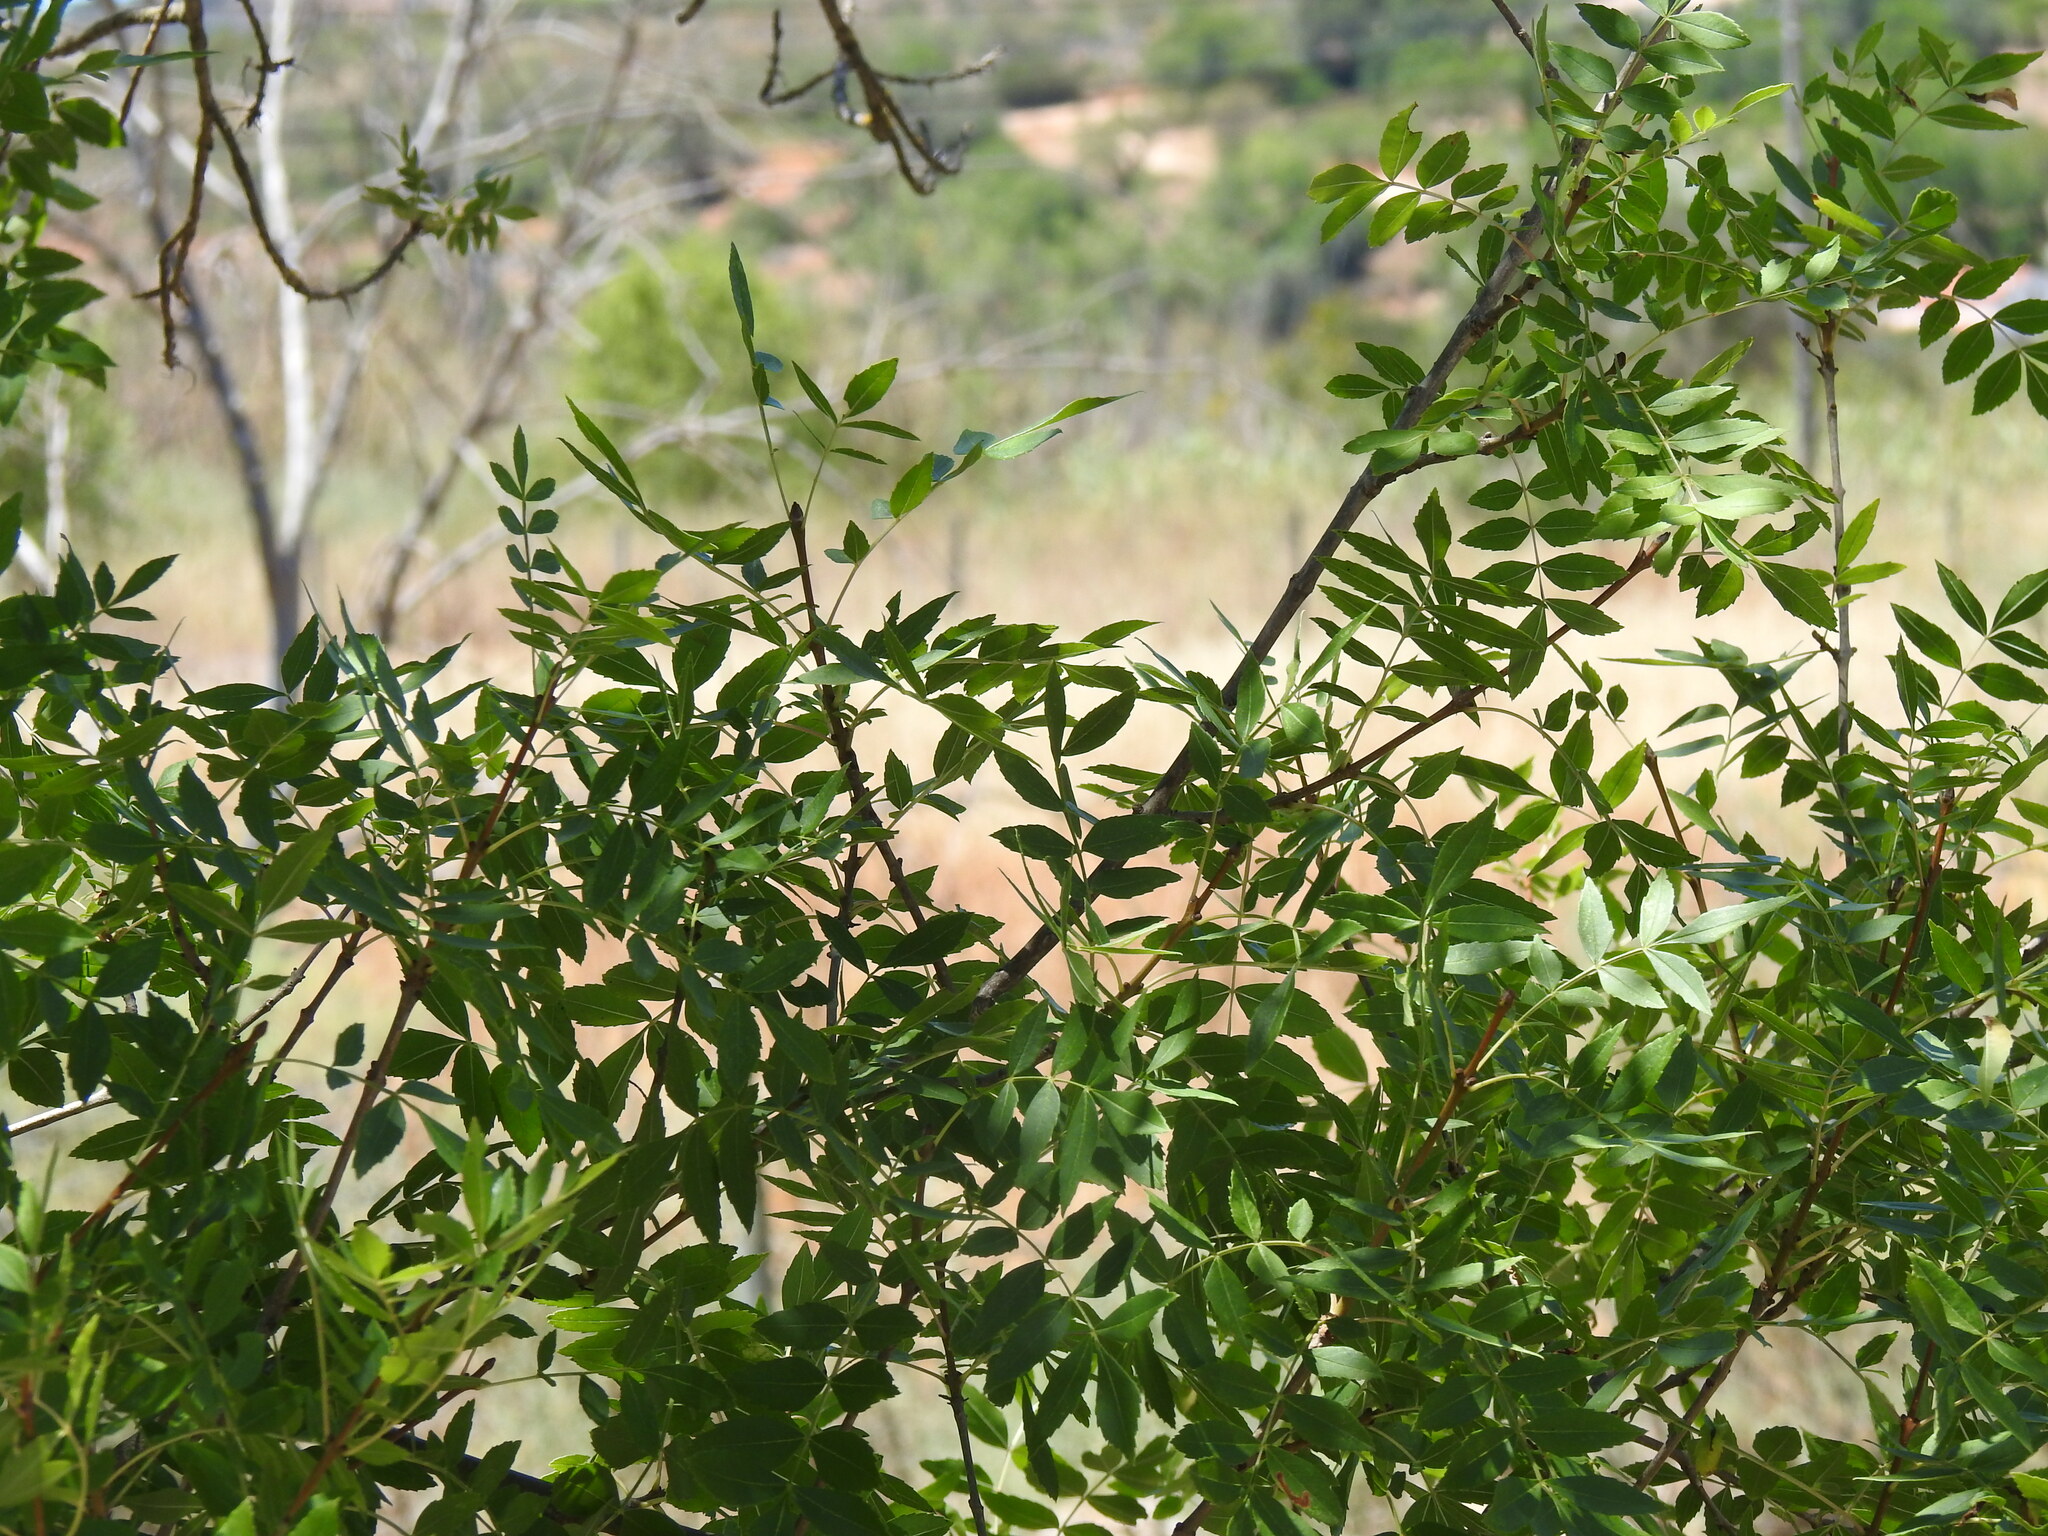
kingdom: Plantae
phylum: Tracheophyta
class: Magnoliopsida
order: Lamiales
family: Oleaceae
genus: Fraxinus
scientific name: Fraxinus angustifolia
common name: Narrow-leafed ash
